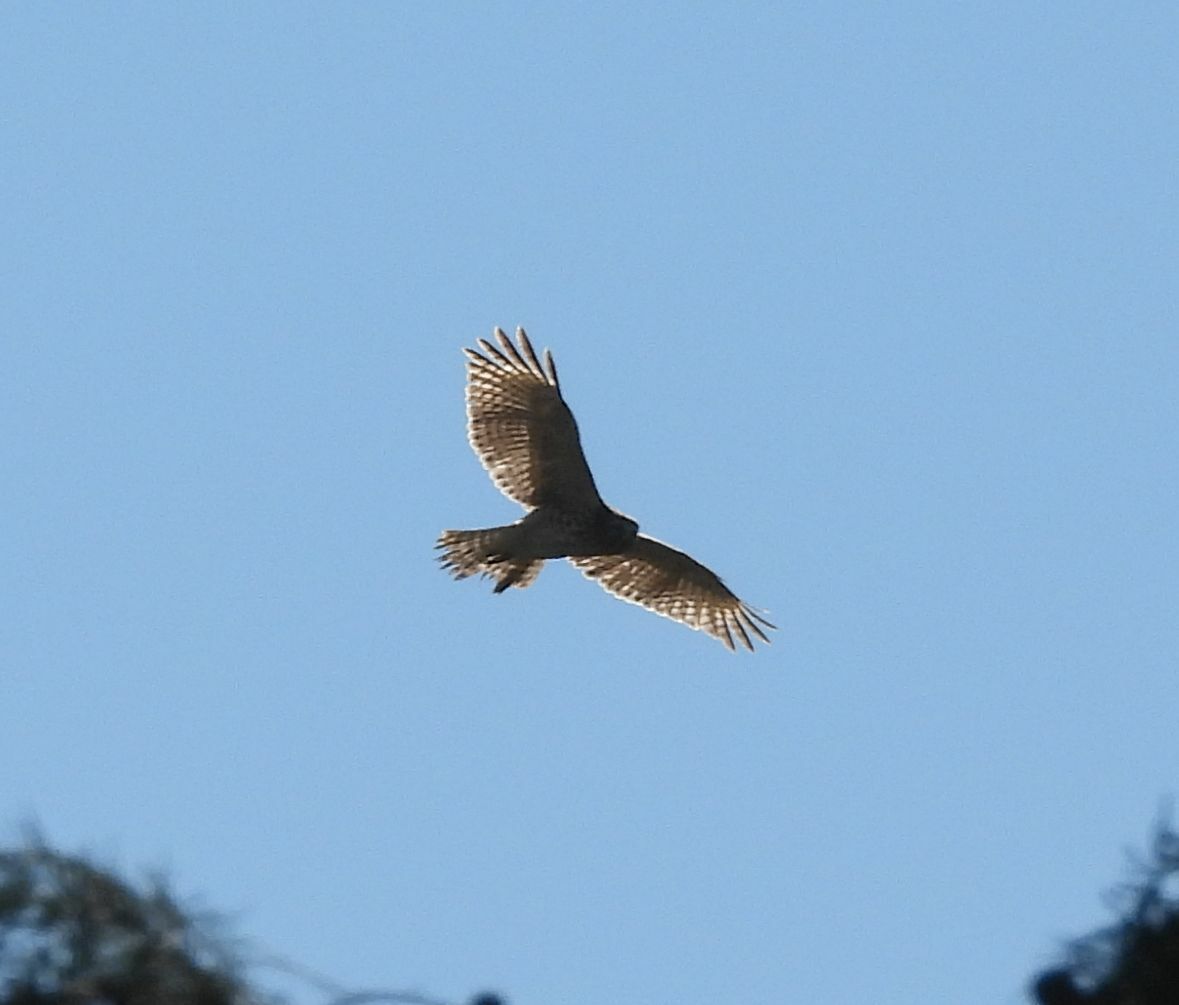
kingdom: Animalia
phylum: Chordata
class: Aves
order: Accipitriformes
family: Accipitridae
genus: Buteo
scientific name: Buteo lineatus
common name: Red-shouldered hawk
